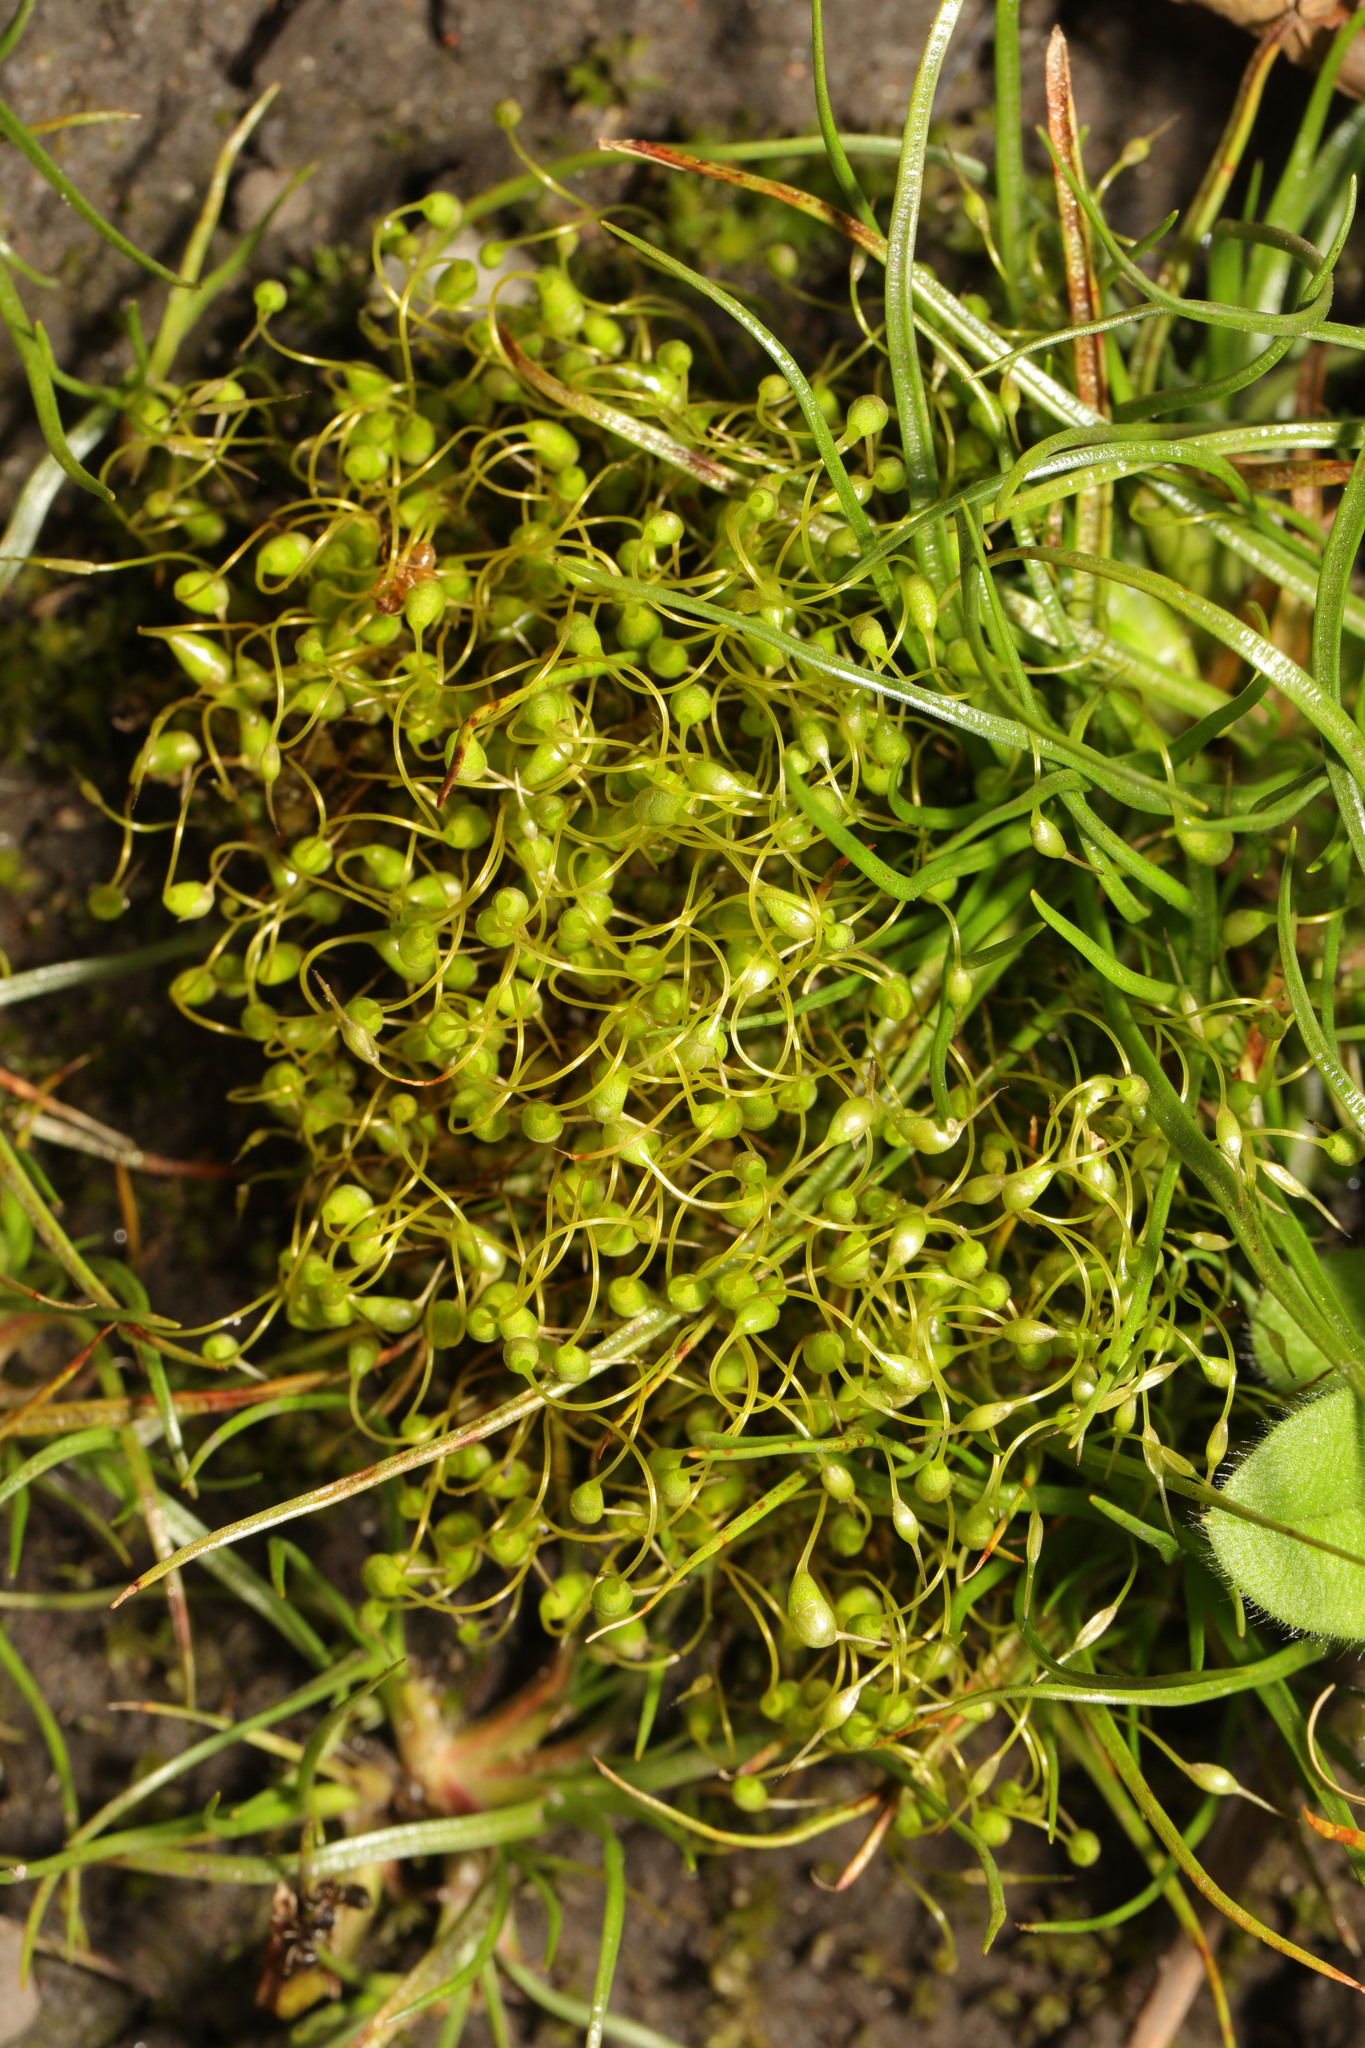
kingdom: Plantae
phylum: Bryophyta
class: Bryopsida
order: Funariales
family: Funariaceae
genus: Funaria
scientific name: Funaria hygrometrica
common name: Common cord moss
